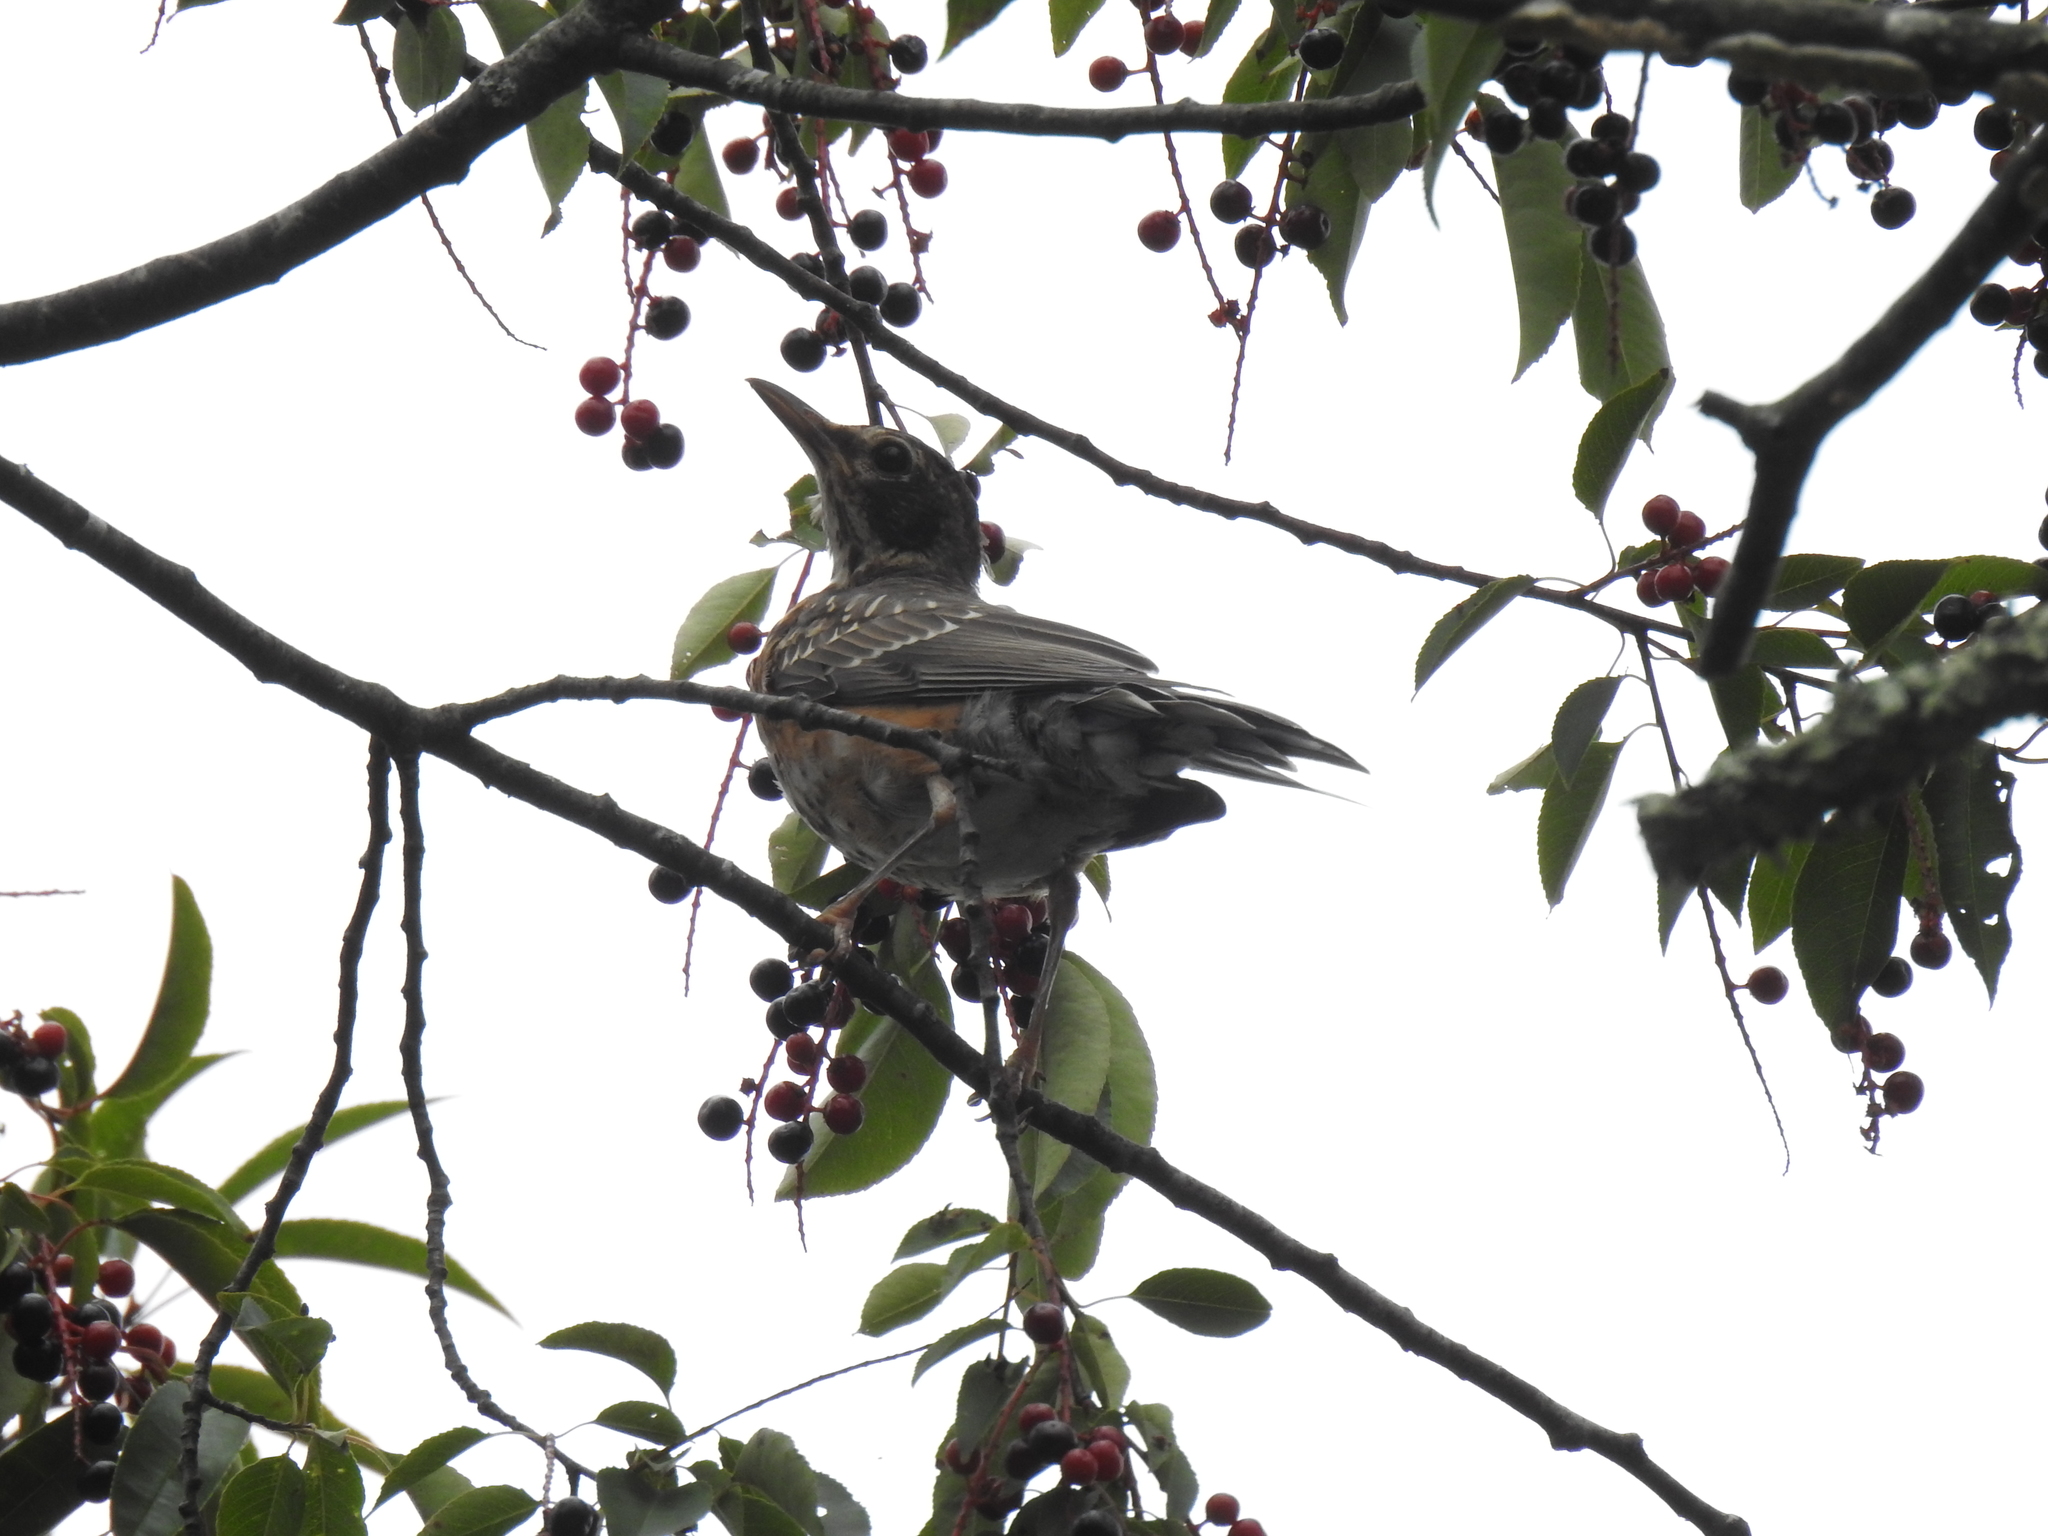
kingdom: Animalia
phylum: Chordata
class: Aves
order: Passeriformes
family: Turdidae
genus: Turdus
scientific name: Turdus migratorius
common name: American robin
